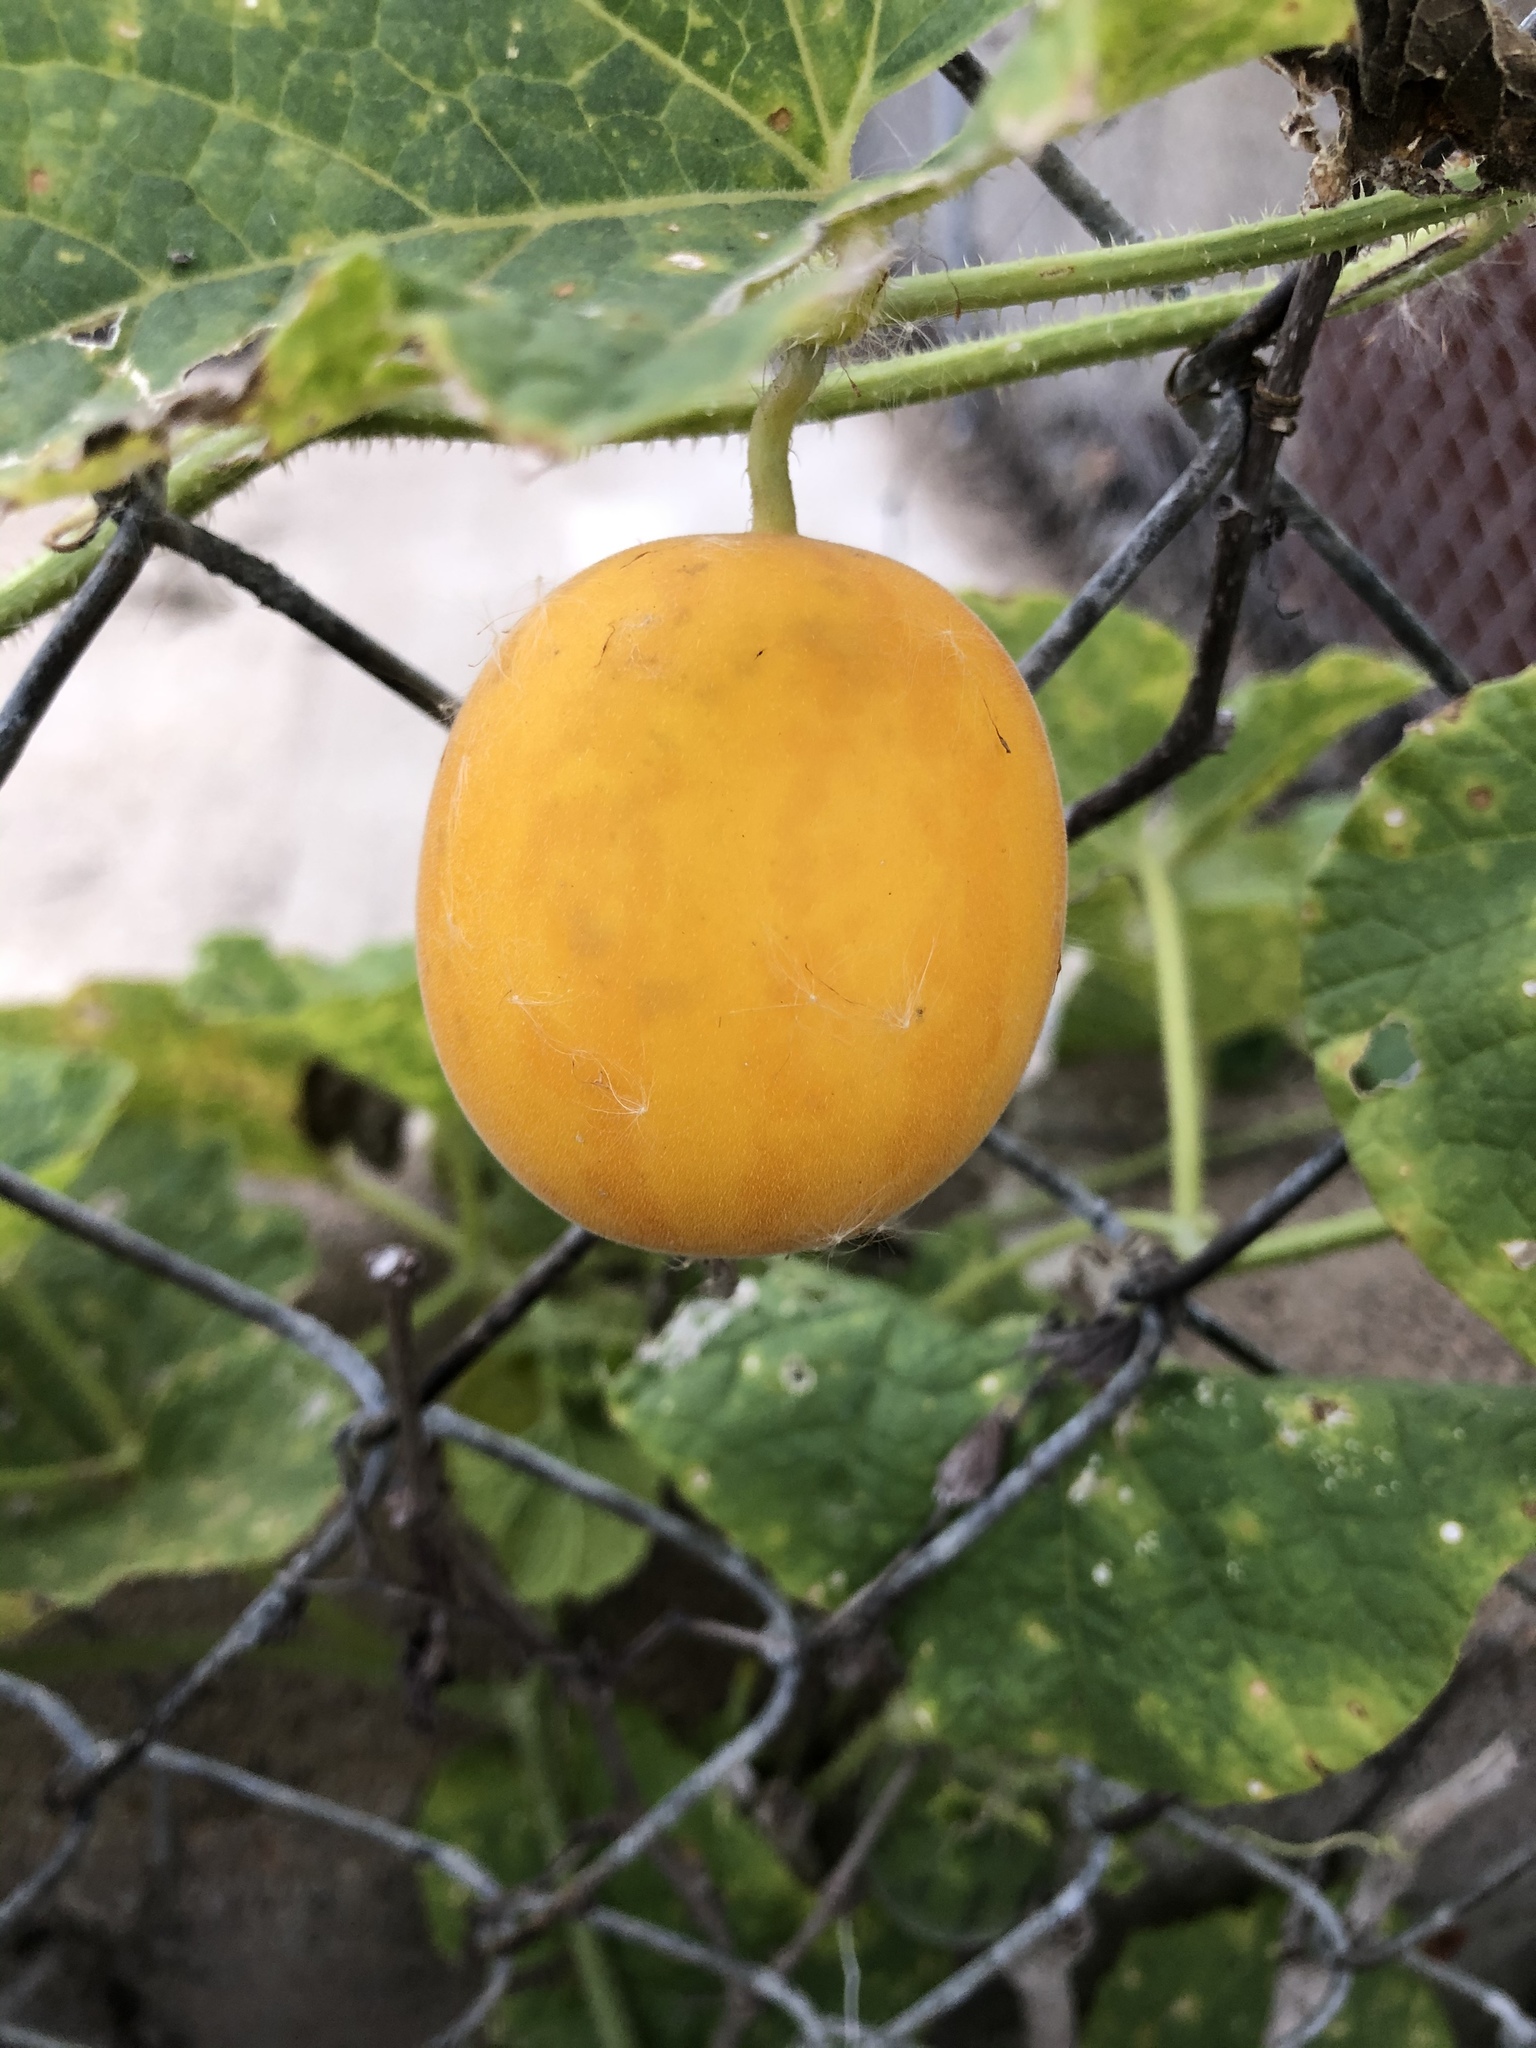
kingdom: Plantae
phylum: Tracheophyta
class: Magnoliopsida
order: Cucurbitales
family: Cucurbitaceae
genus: Cucumis
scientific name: Cucumis melo
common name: Melon
